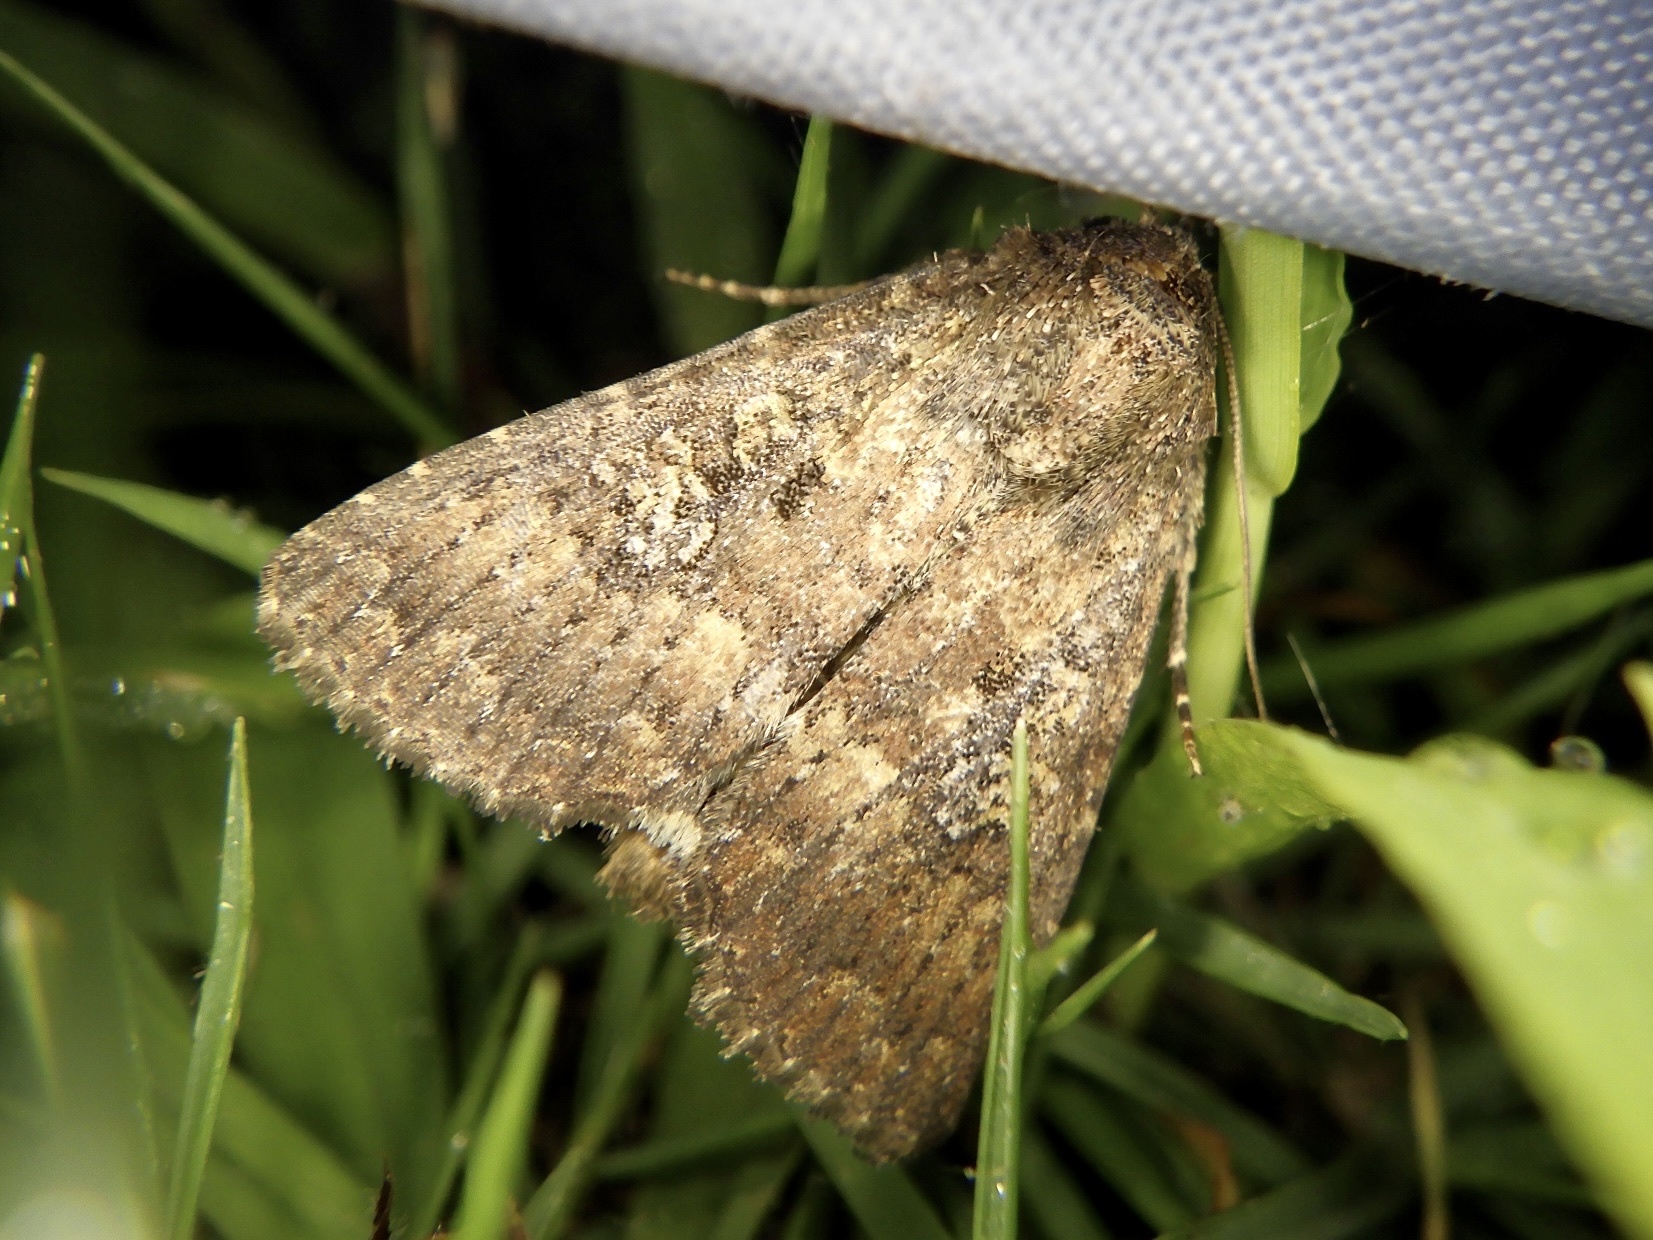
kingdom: Animalia
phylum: Arthropoda
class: Insecta
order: Lepidoptera
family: Noctuidae
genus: Condica
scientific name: Condica illecta
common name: Cutworm
